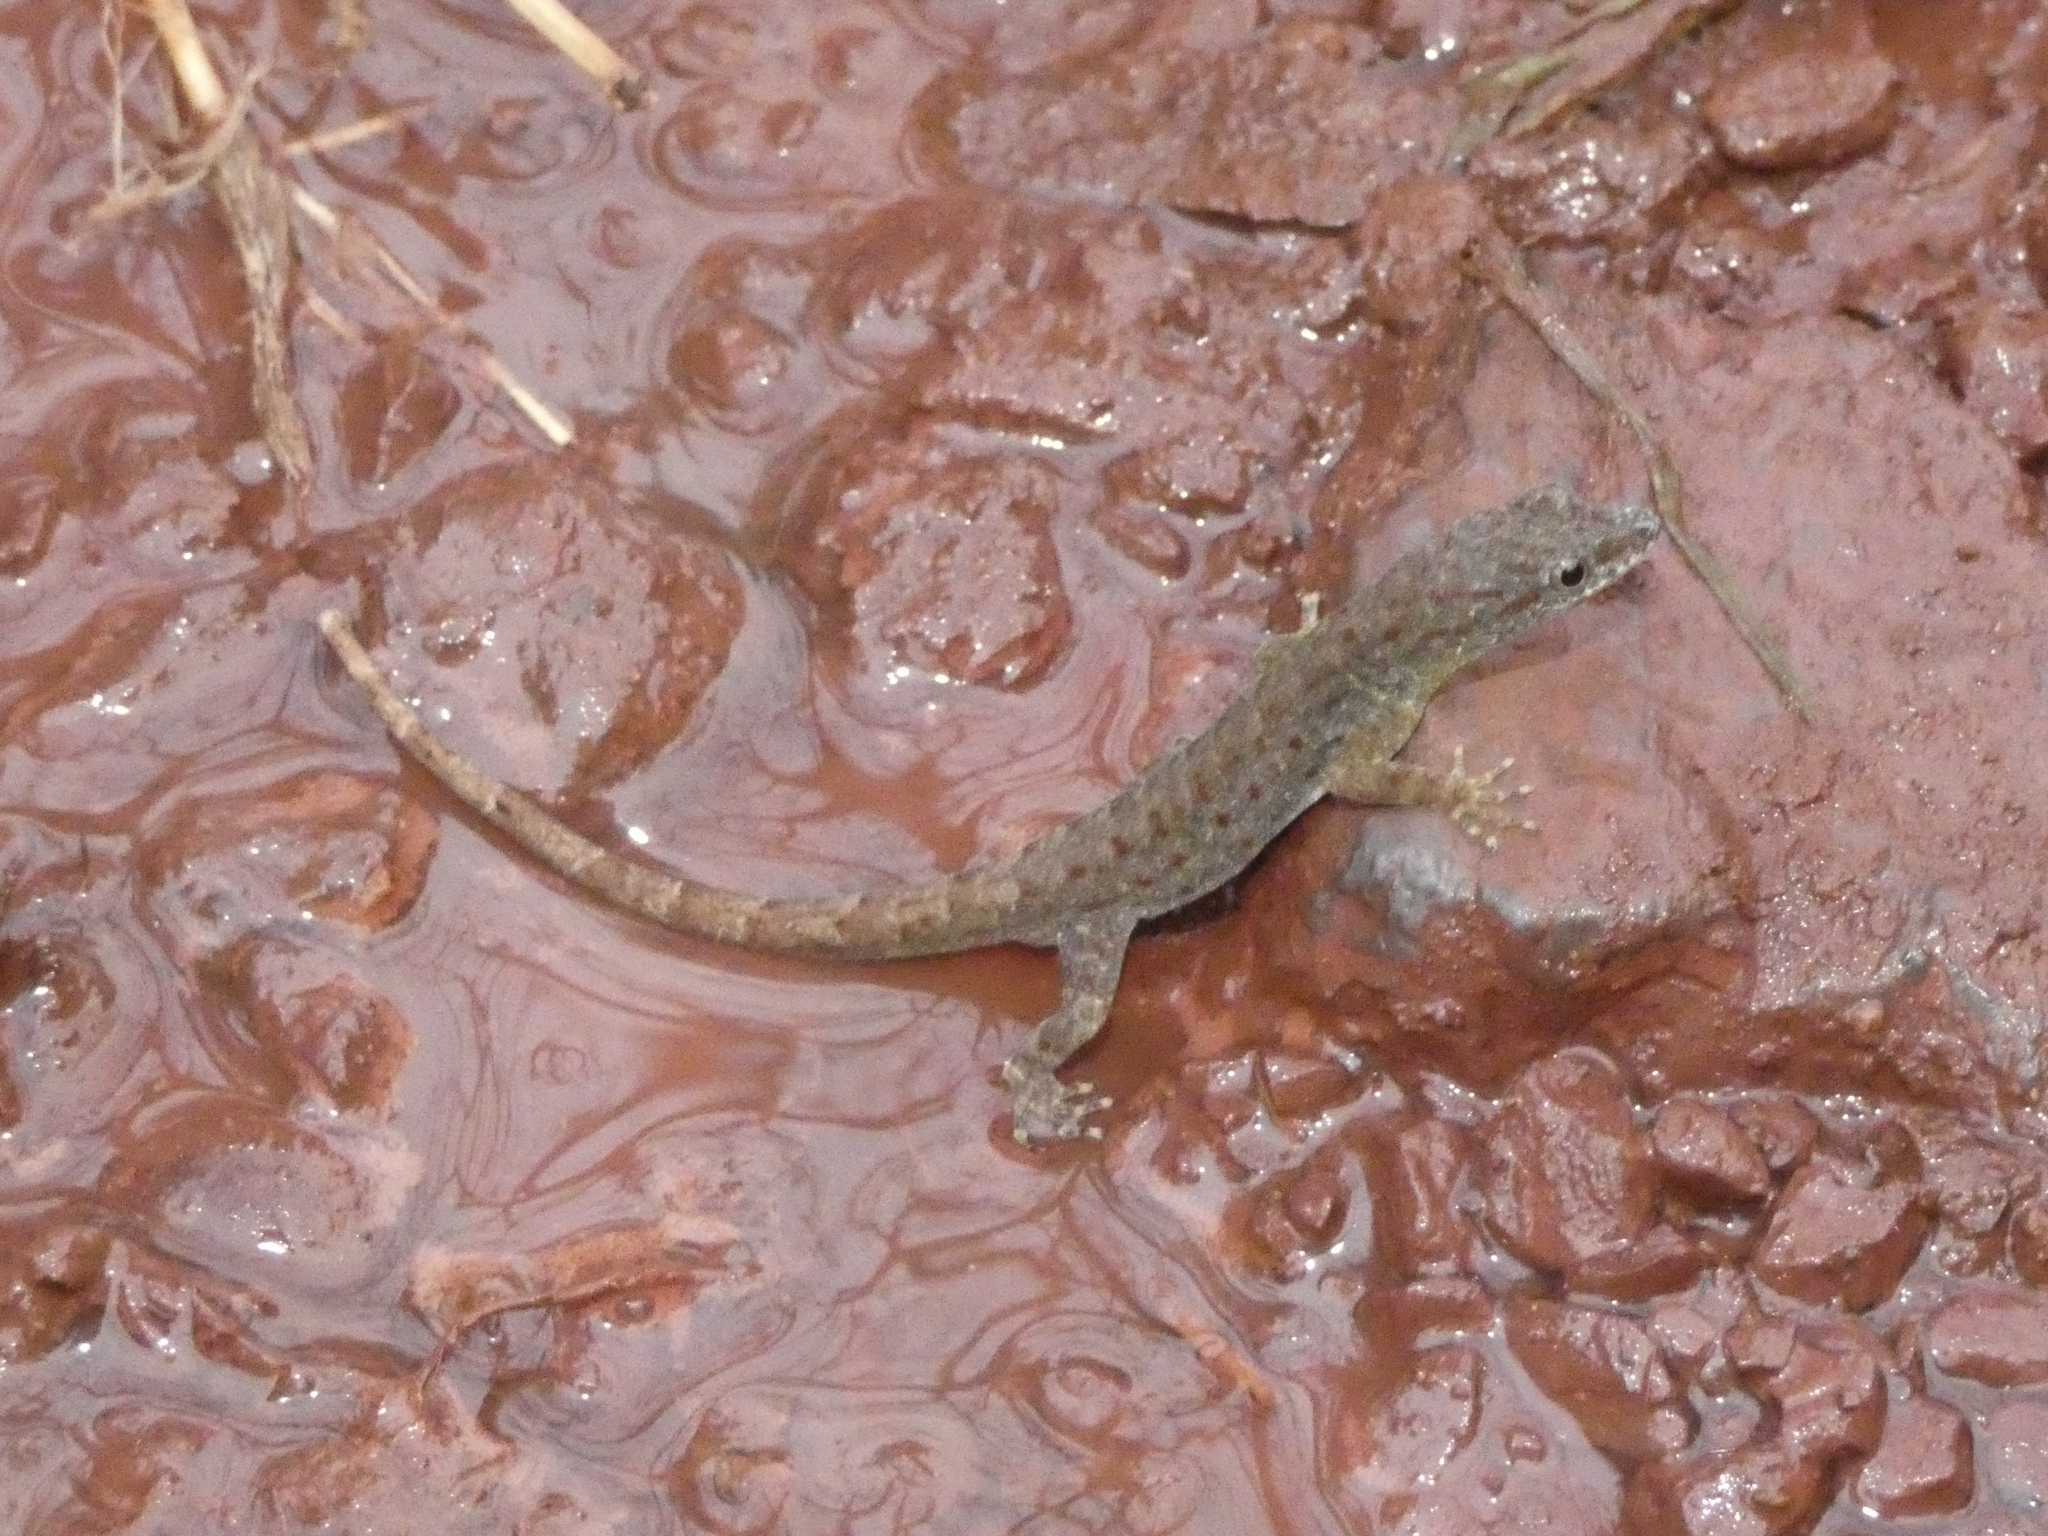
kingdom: Animalia
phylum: Chordata
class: Squamata
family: Sphaerodactylidae
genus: Gonatodes
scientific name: Gonatodes humeralis
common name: South american clawed gecko
